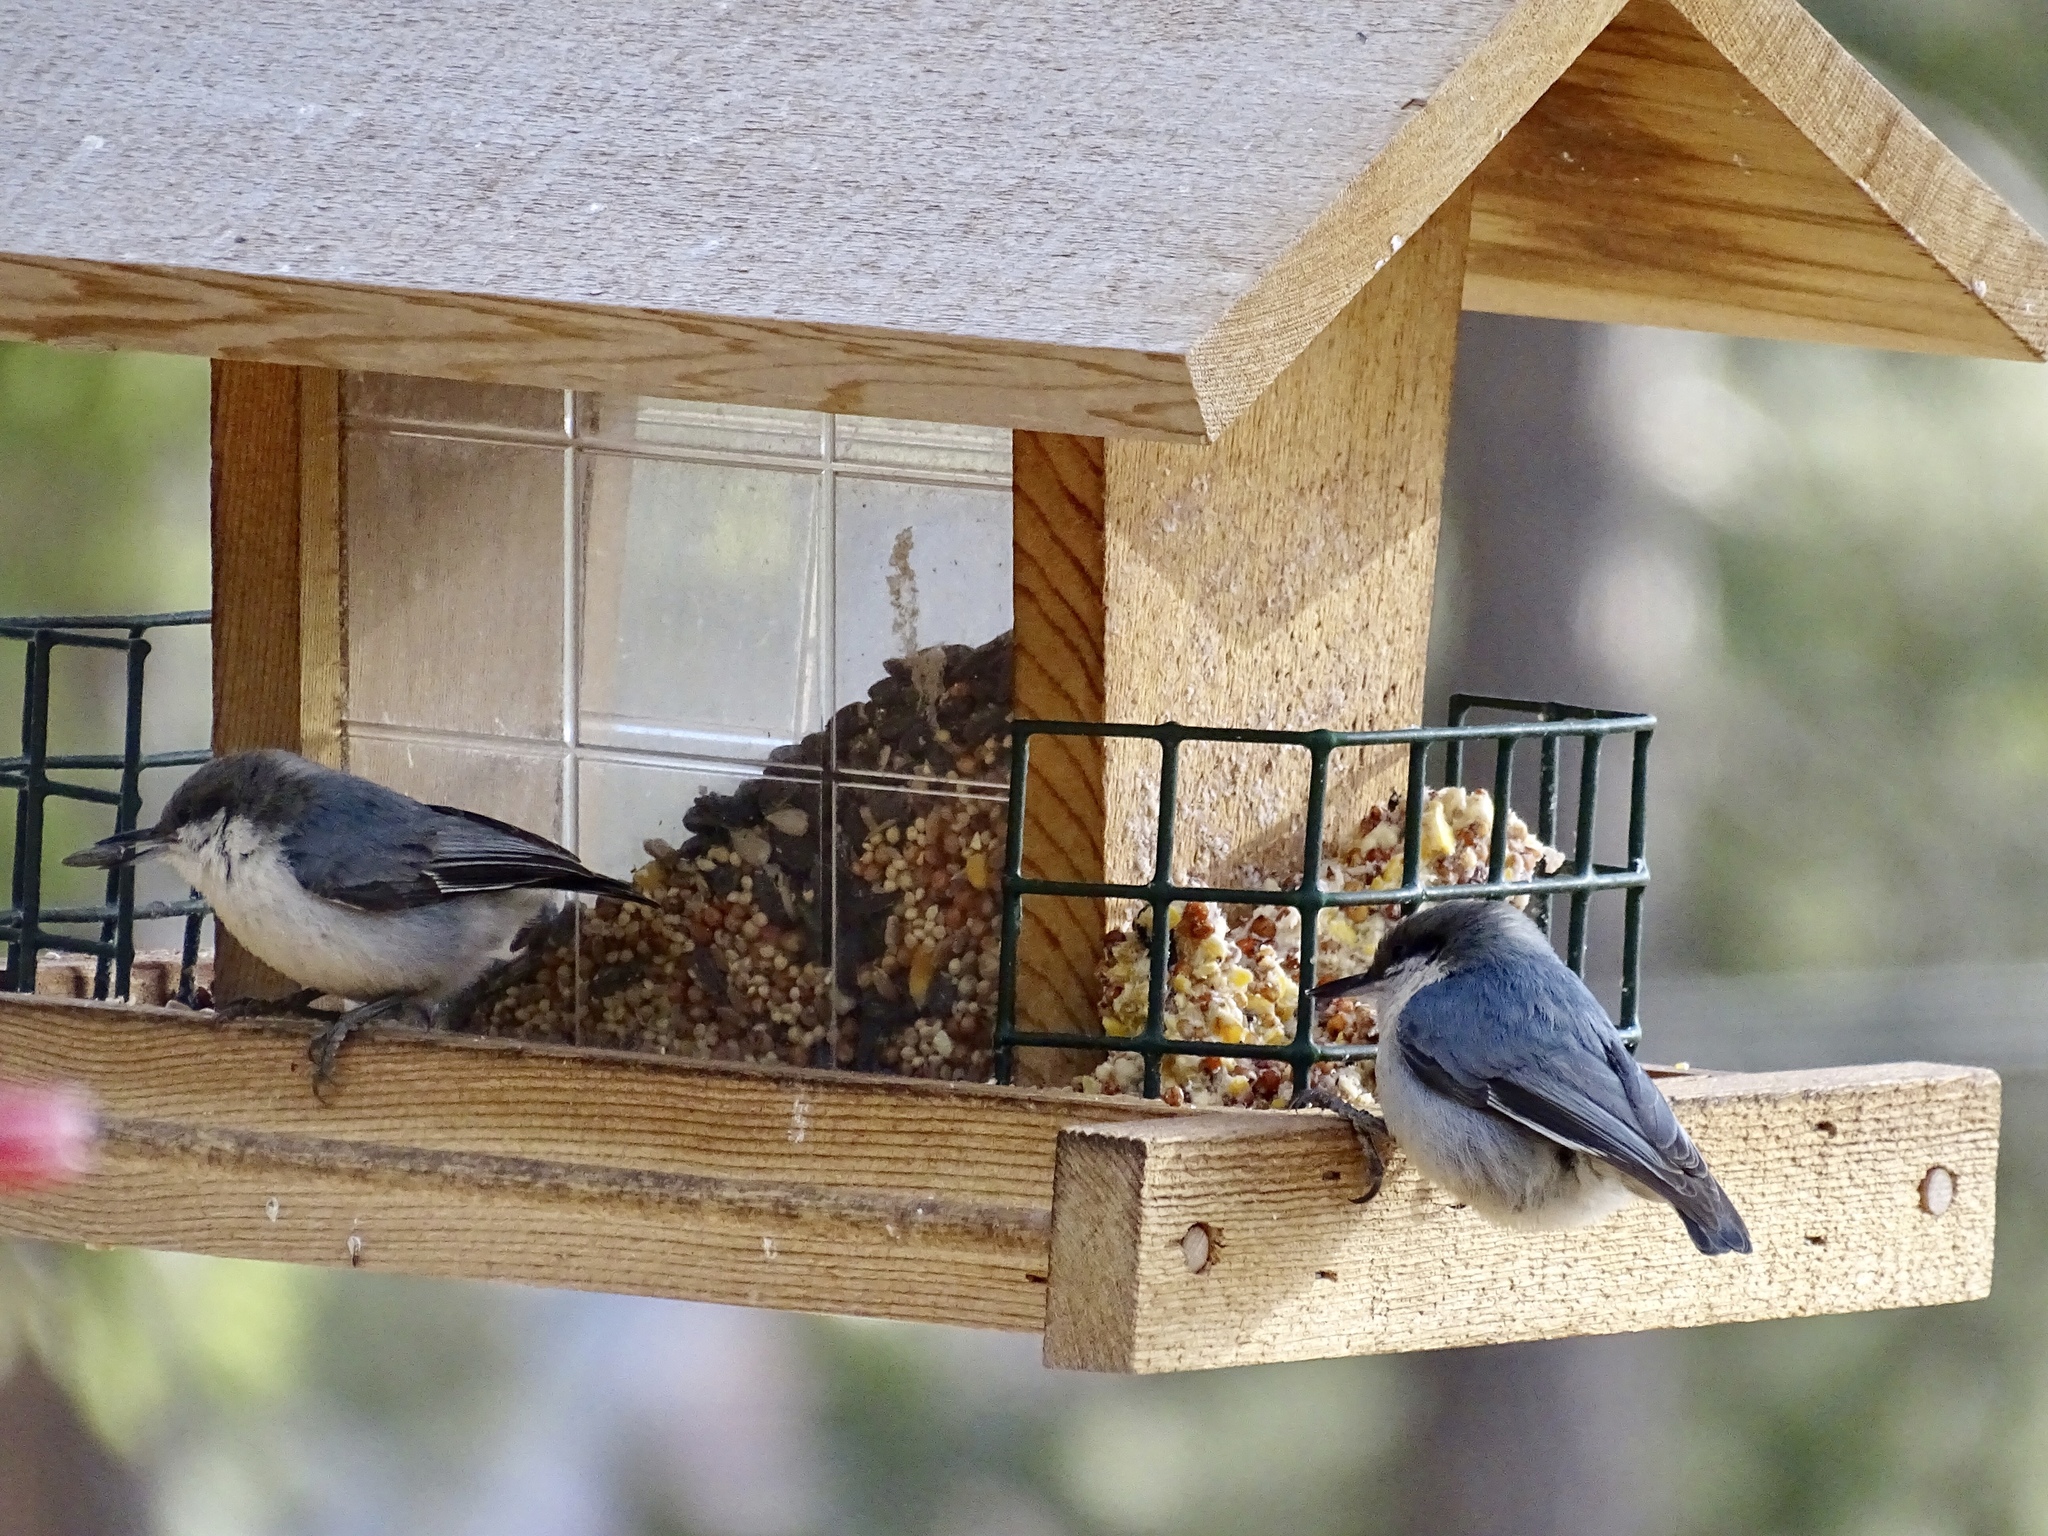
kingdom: Animalia
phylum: Chordata
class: Aves
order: Passeriformes
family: Sittidae
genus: Sitta
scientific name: Sitta pygmaea
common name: Pygmy nuthatch
